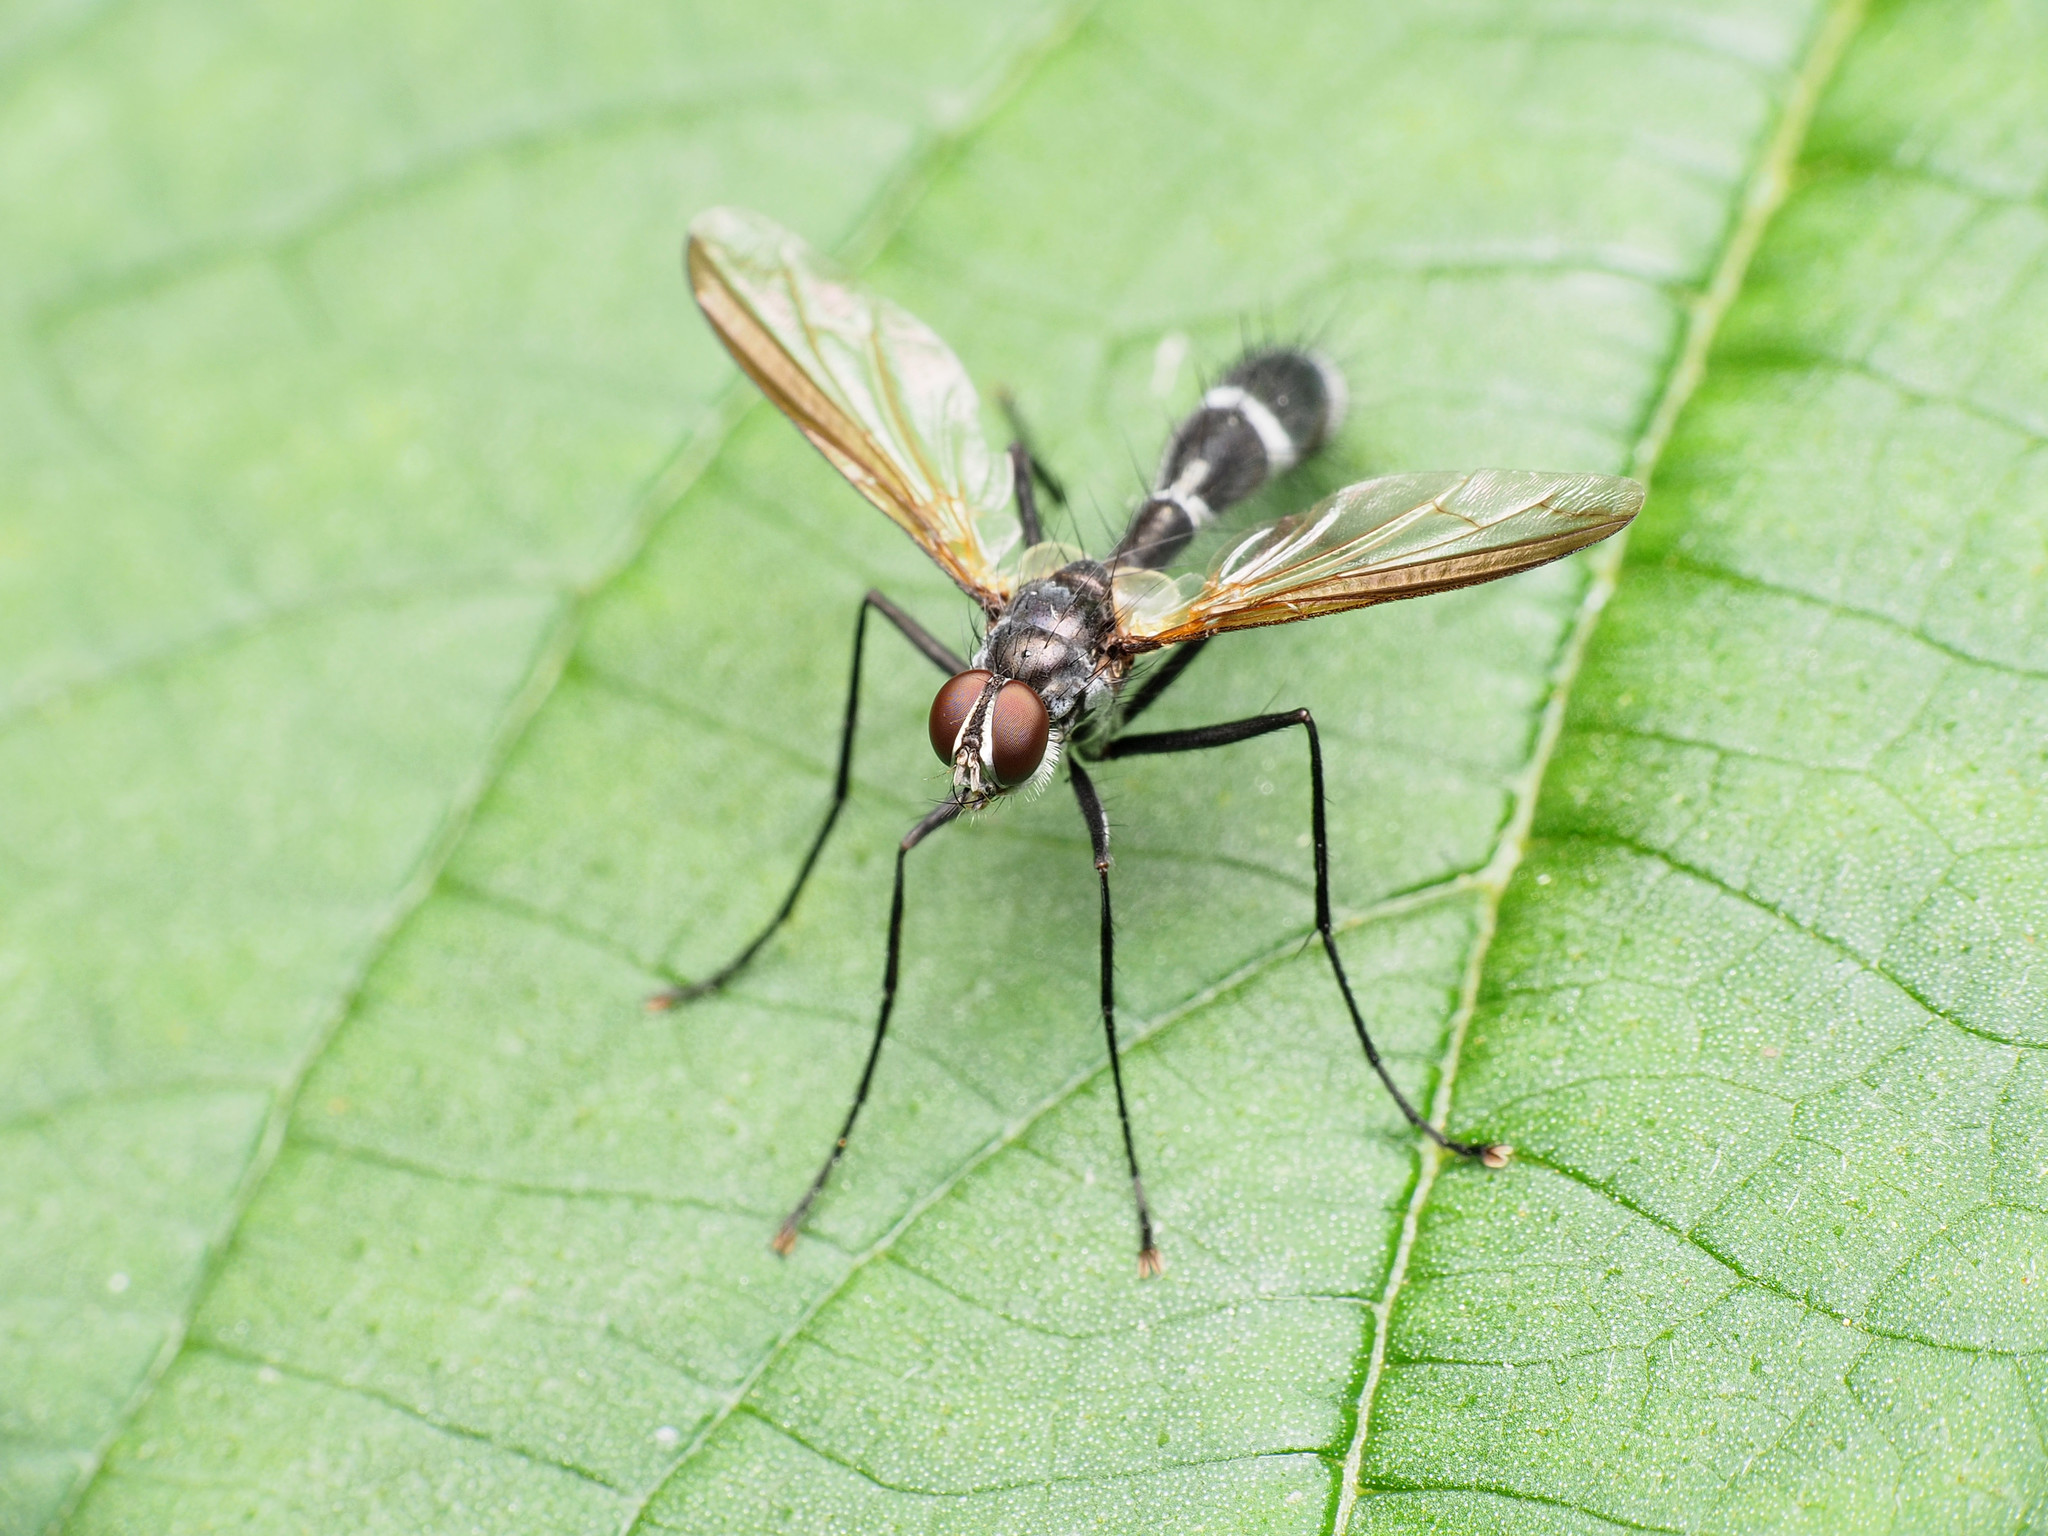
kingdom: Animalia
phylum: Arthropoda
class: Insecta
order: Diptera
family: Tachinidae
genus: Cordyligaster
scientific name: Cordyligaster septentrionalis
